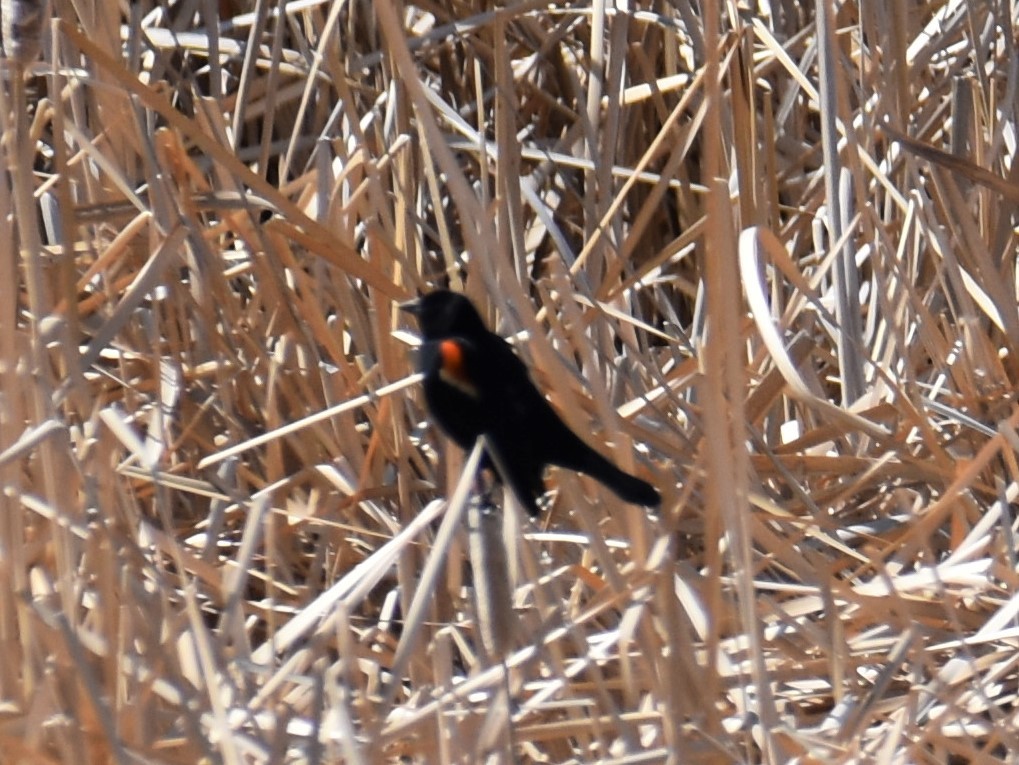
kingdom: Animalia
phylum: Chordata
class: Aves
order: Passeriformes
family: Icteridae
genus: Agelaius
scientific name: Agelaius phoeniceus
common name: Red-winged blackbird
